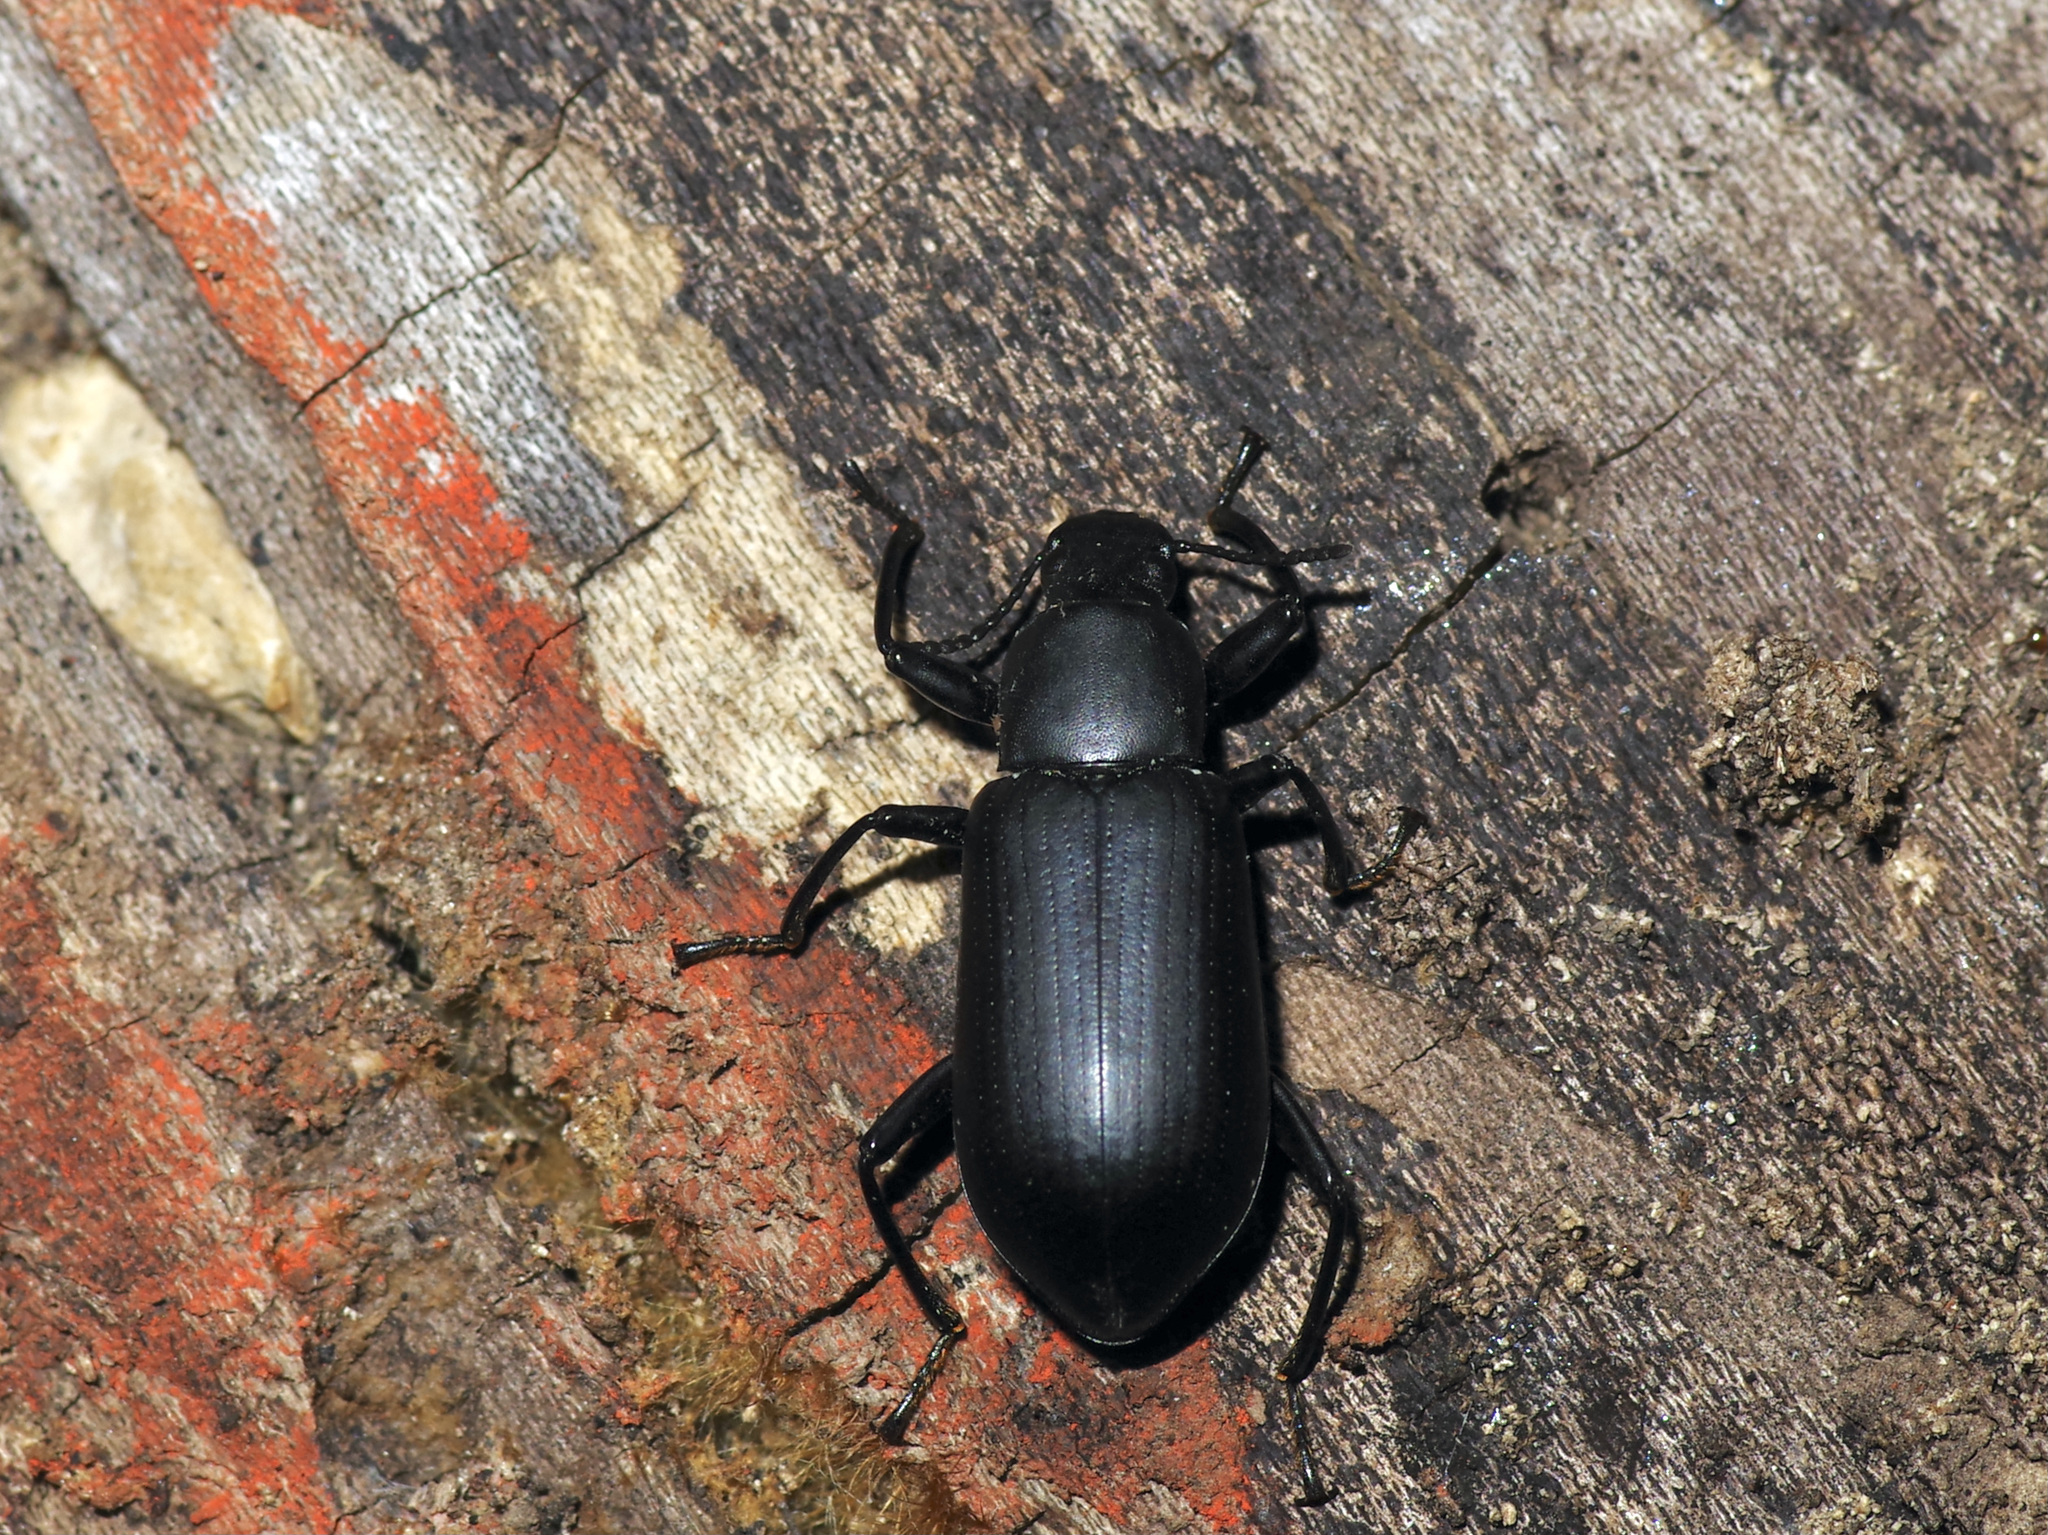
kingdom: Animalia
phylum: Arthropoda
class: Insecta
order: Coleoptera
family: Tenebrionidae
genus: Alobates
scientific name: Alobates
